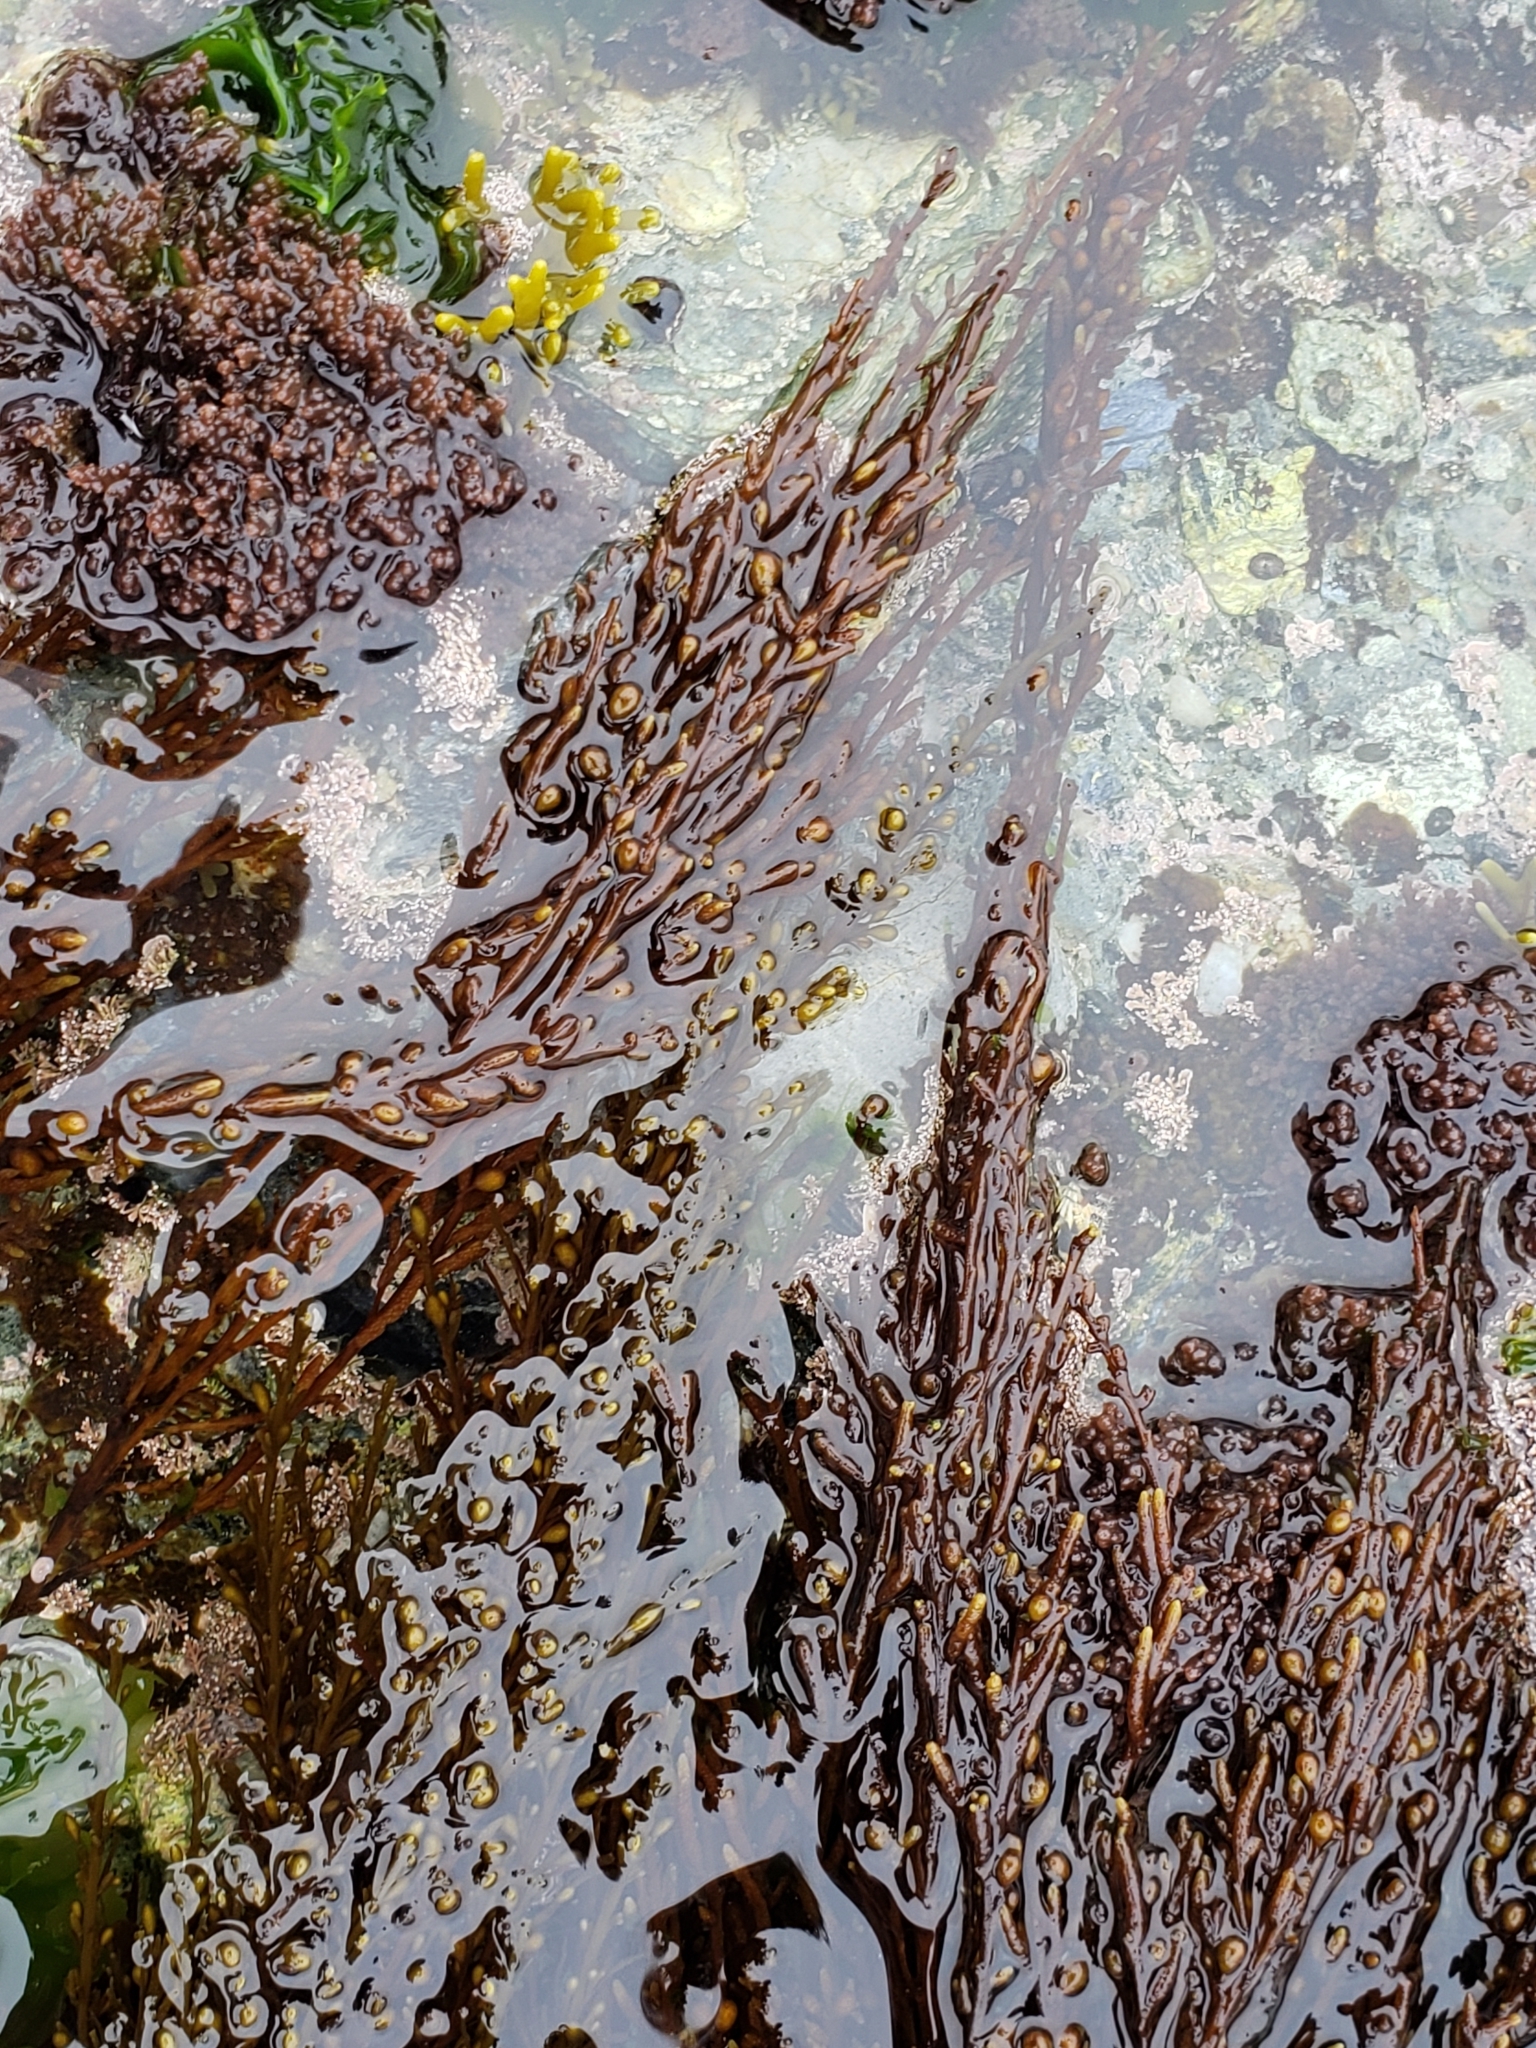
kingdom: Chromista
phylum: Ochrophyta
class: Phaeophyceae
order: Fucales
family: Sargassaceae
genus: Sargassum
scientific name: Sargassum muticum
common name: Japweed
